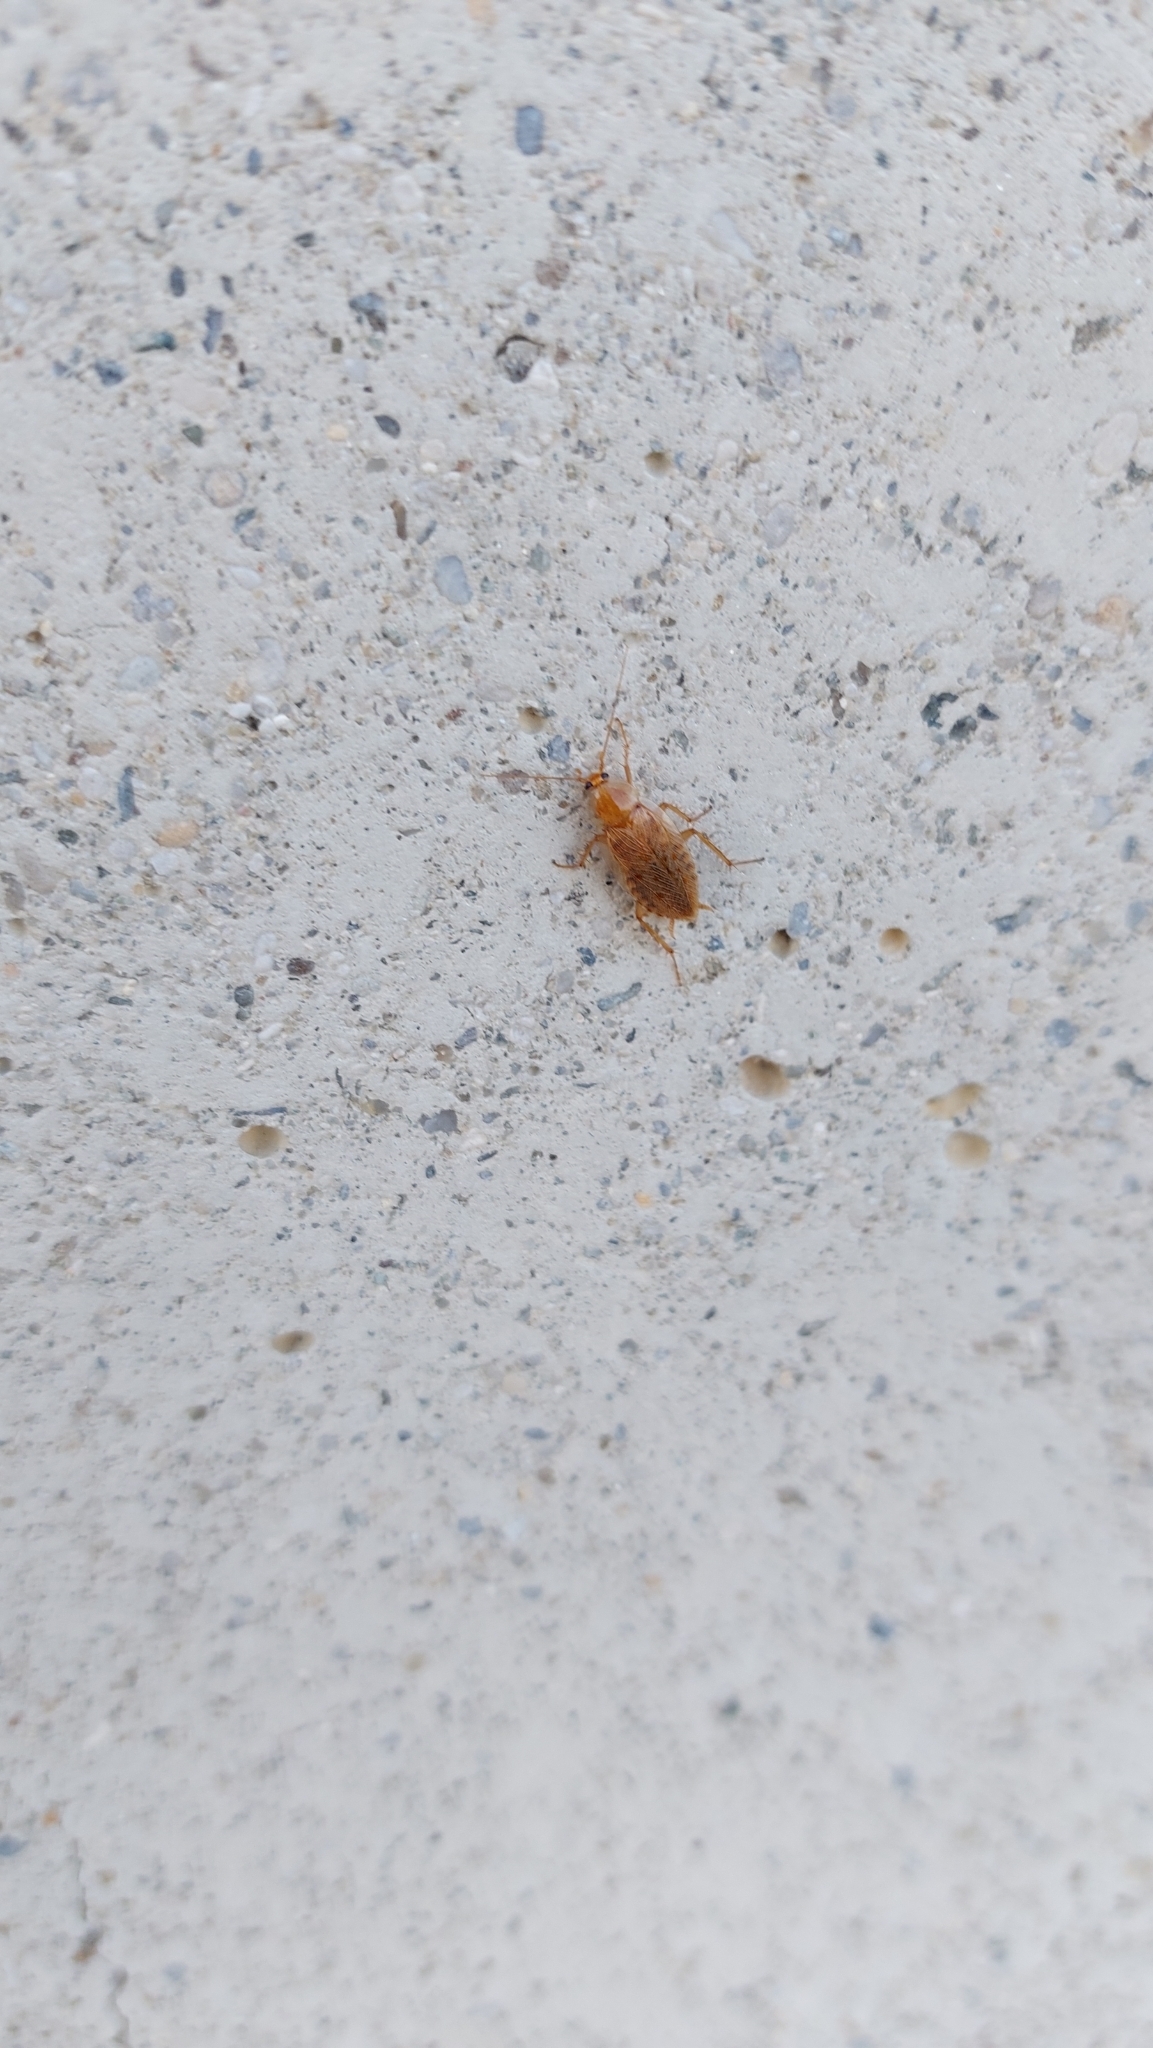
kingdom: Animalia
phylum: Arthropoda
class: Insecta
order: Blattodea
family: Ectobiidae
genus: Ectobius
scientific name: Ectobius vittiventris
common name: Garden cockroach
